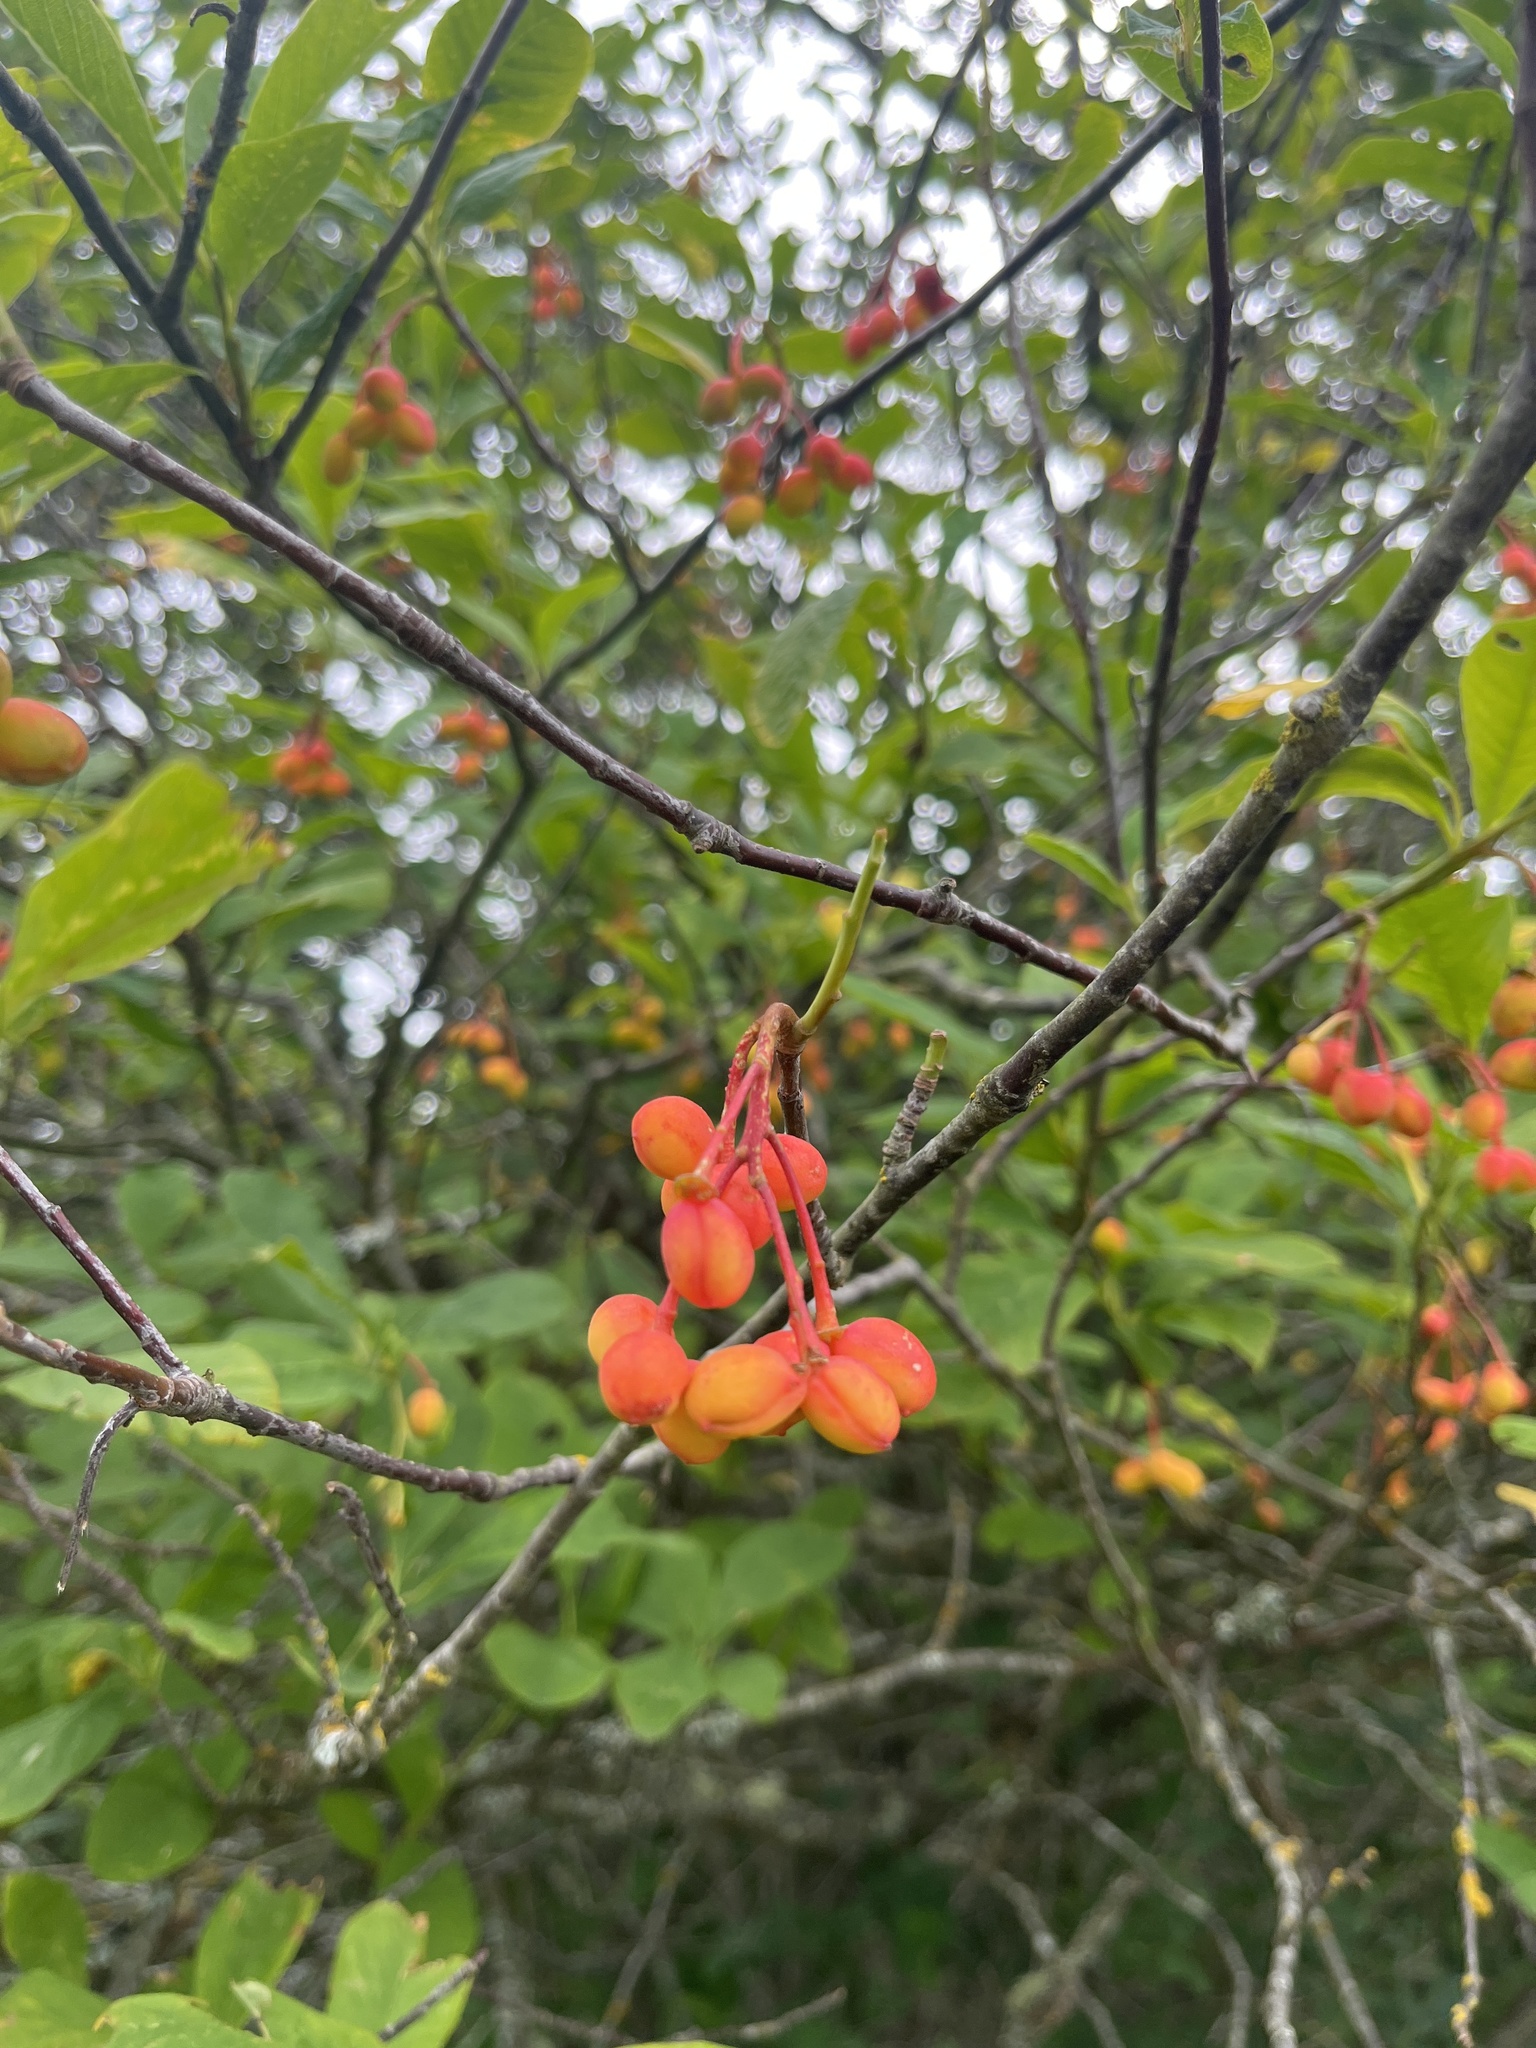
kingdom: Plantae
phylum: Tracheophyta
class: Magnoliopsida
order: Rosales
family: Rosaceae
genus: Oemleria
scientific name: Oemleria cerasiformis
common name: Osoberry
